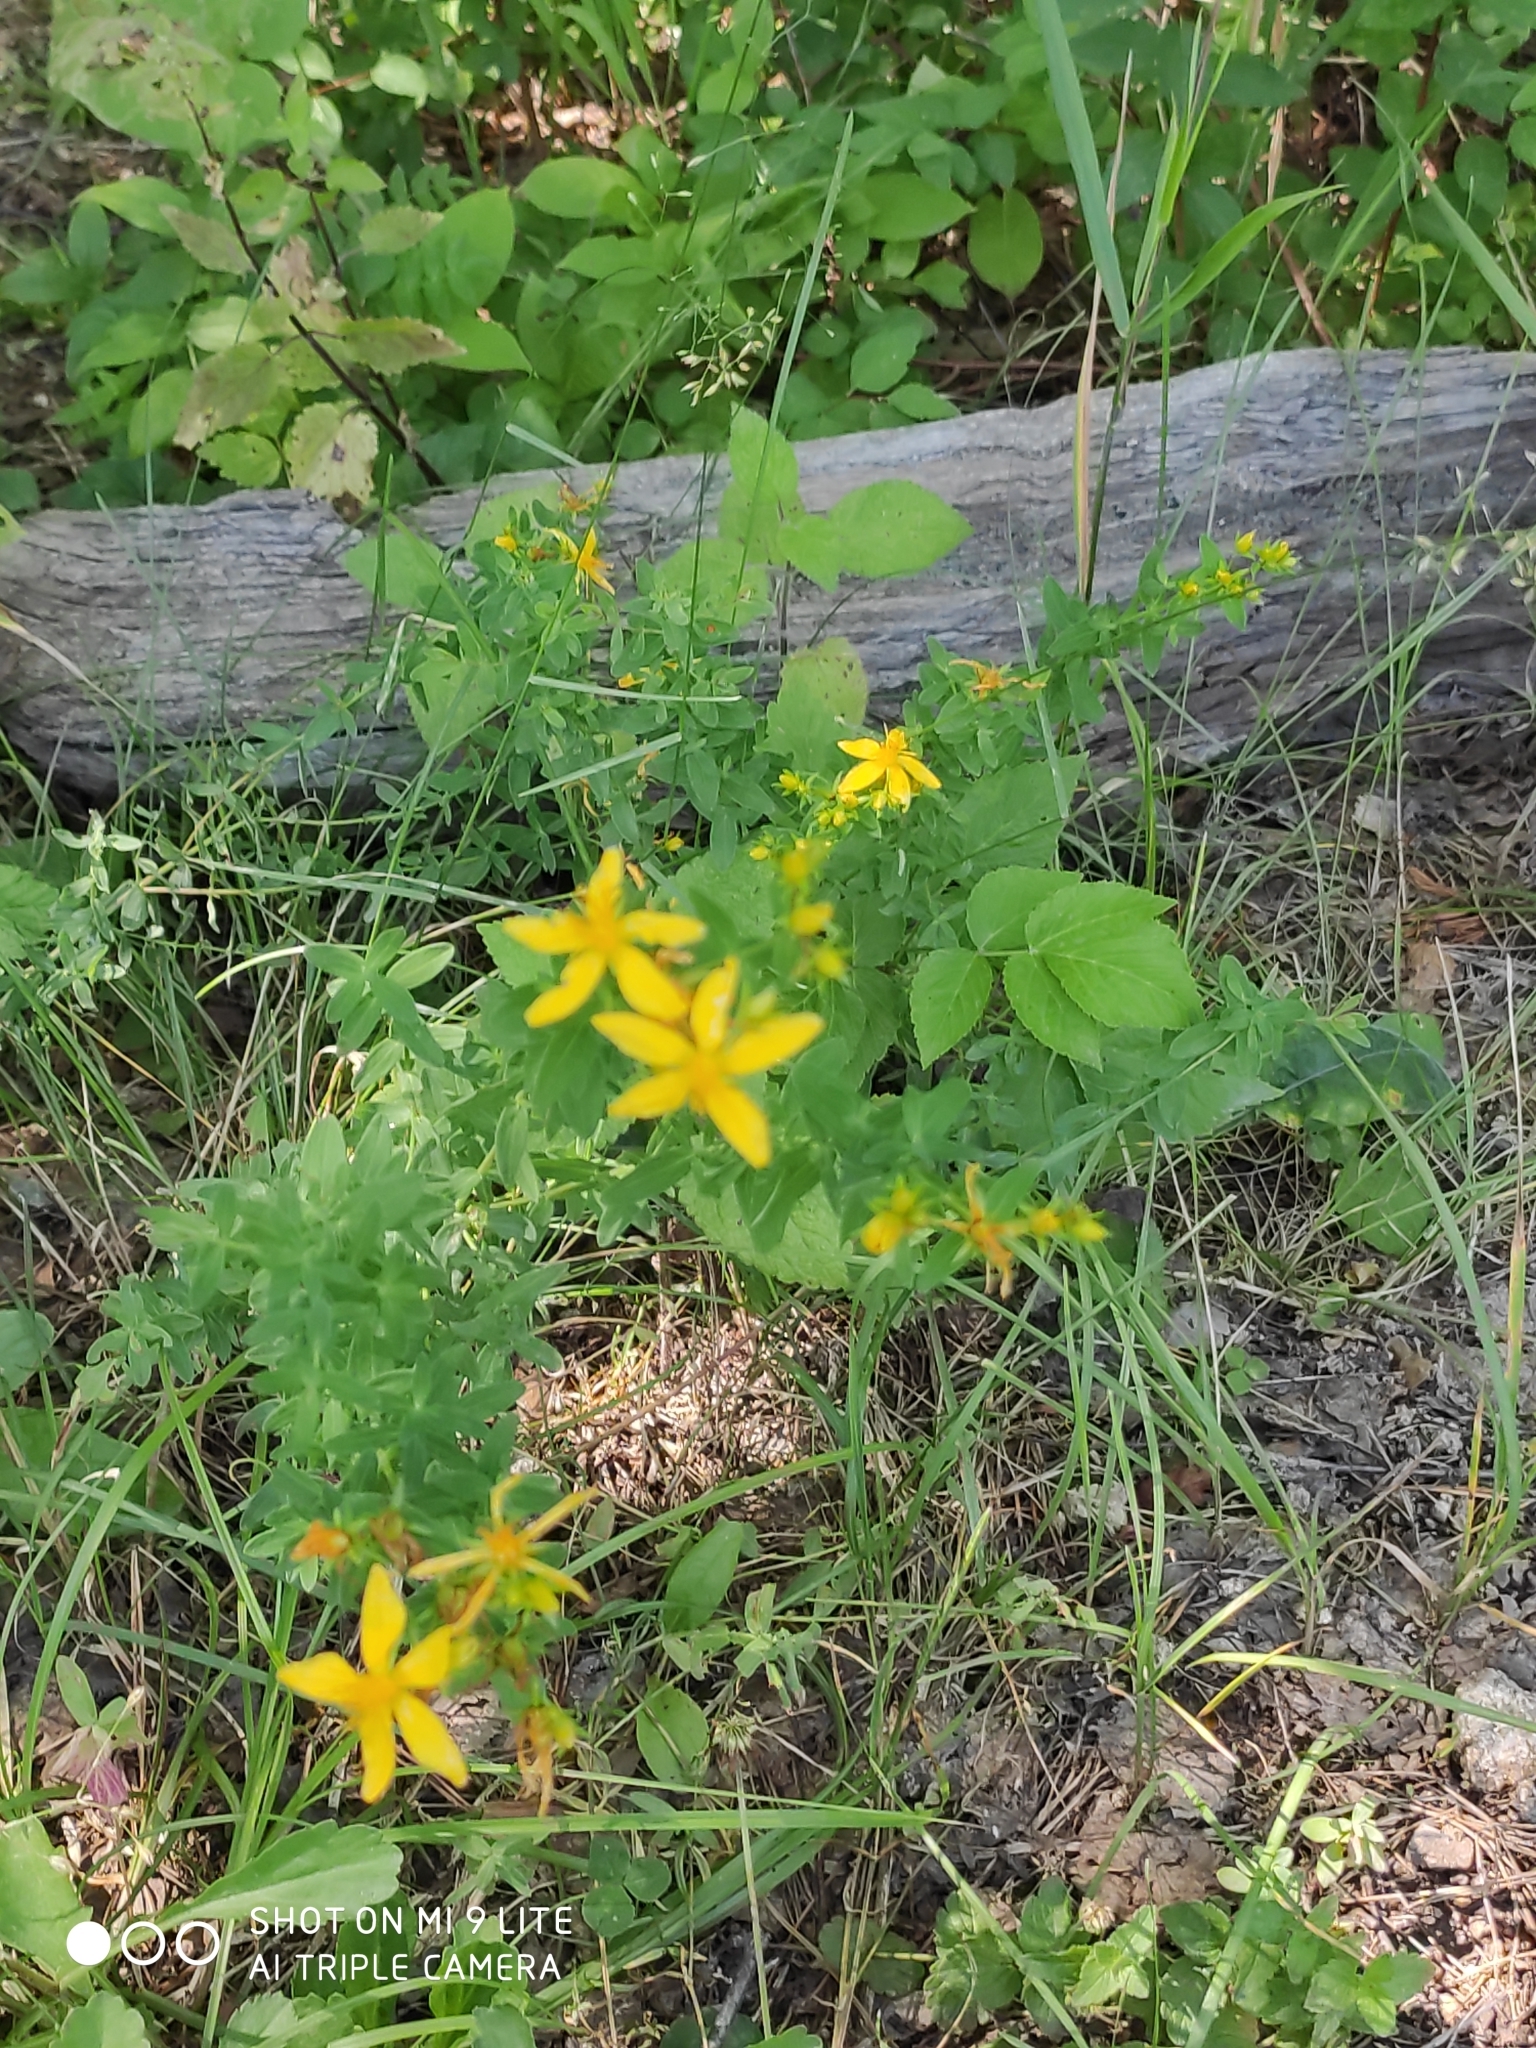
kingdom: Plantae
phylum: Tracheophyta
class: Magnoliopsida
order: Malpighiales
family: Hypericaceae
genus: Hypericum
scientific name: Hypericum perforatum
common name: Common st. johnswort
